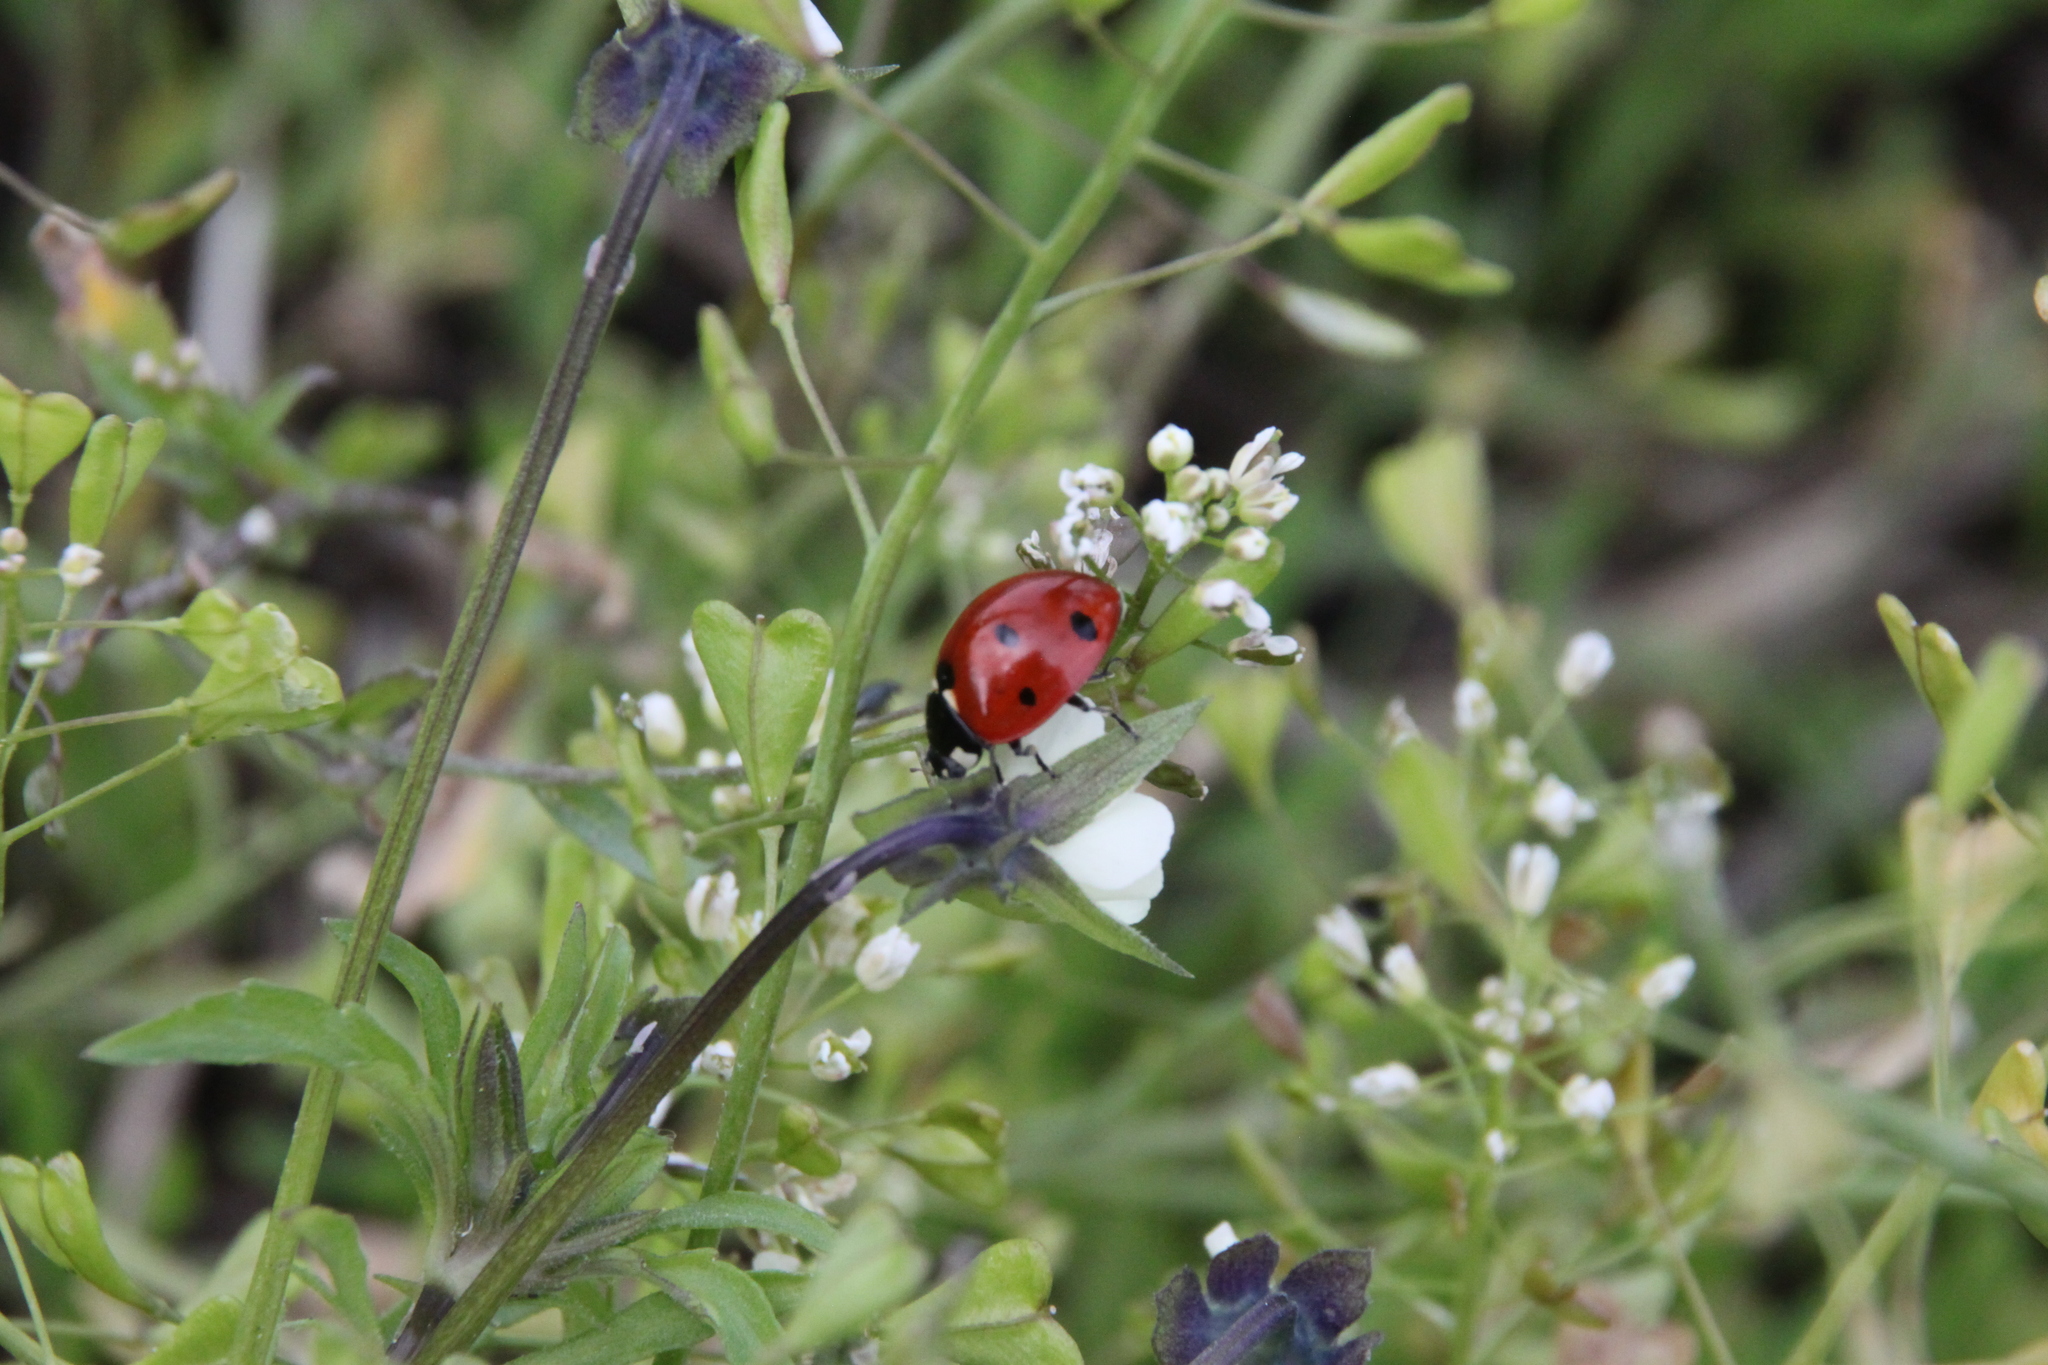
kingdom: Animalia
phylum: Arthropoda
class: Insecta
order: Coleoptera
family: Coccinellidae
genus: Coccinella
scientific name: Coccinella septempunctata
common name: Sevenspotted lady beetle
